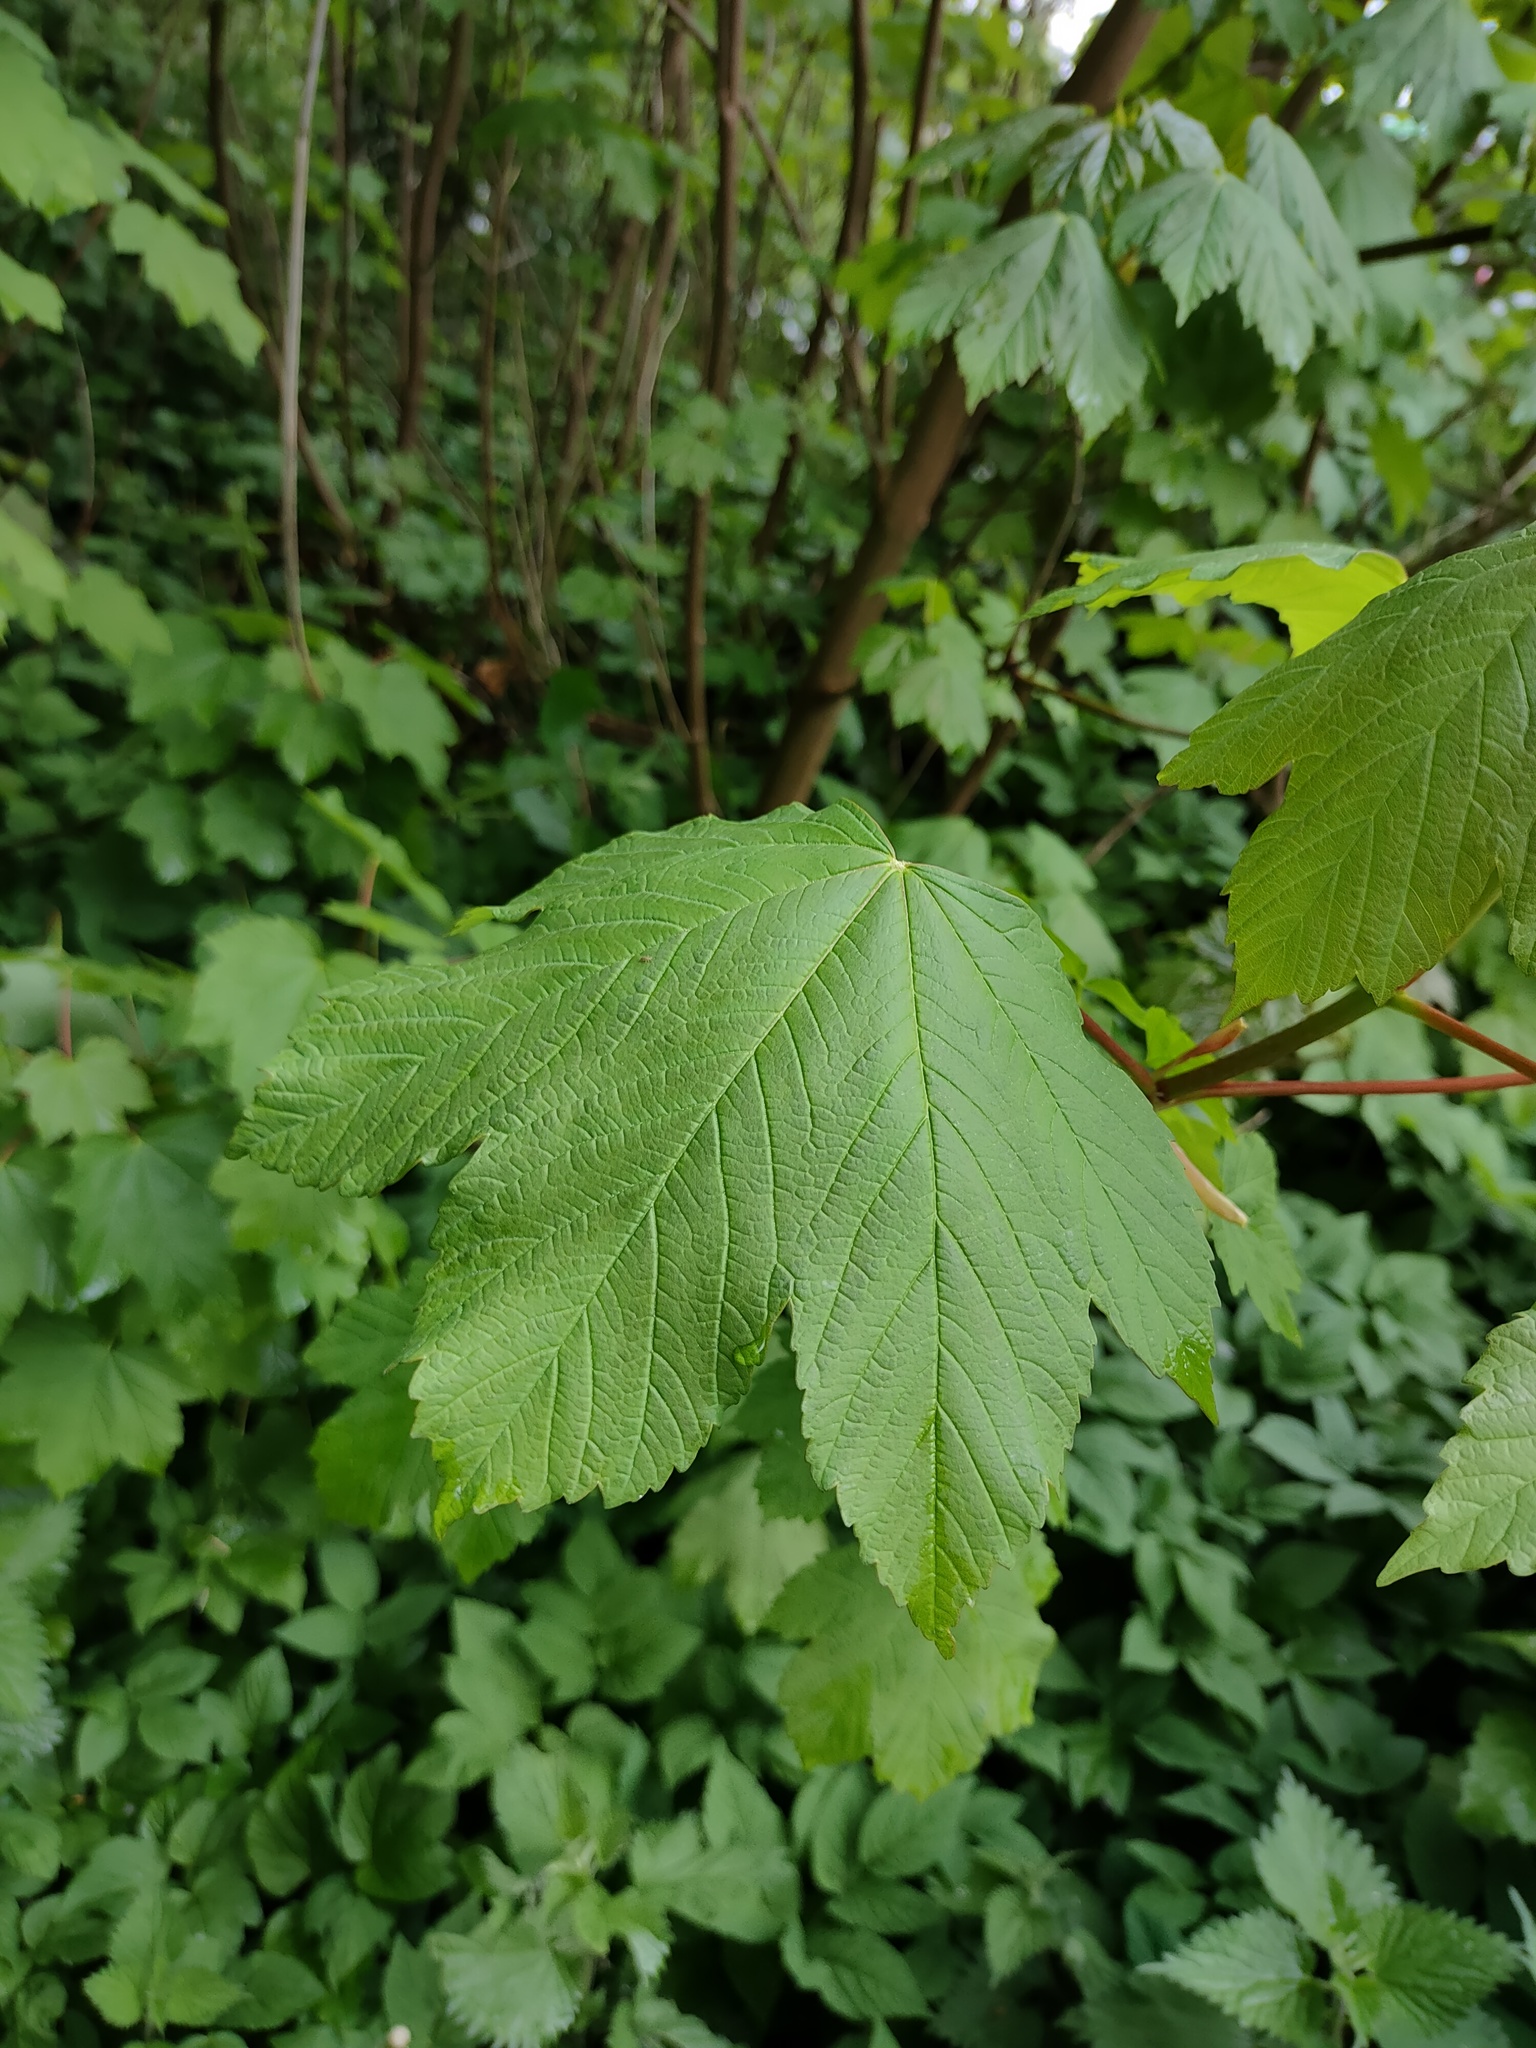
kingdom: Plantae
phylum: Tracheophyta
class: Magnoliopsida
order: Sapindales
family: Sapindaceae
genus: Acer
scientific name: Acer pseudoplatanus
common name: Sycamore
